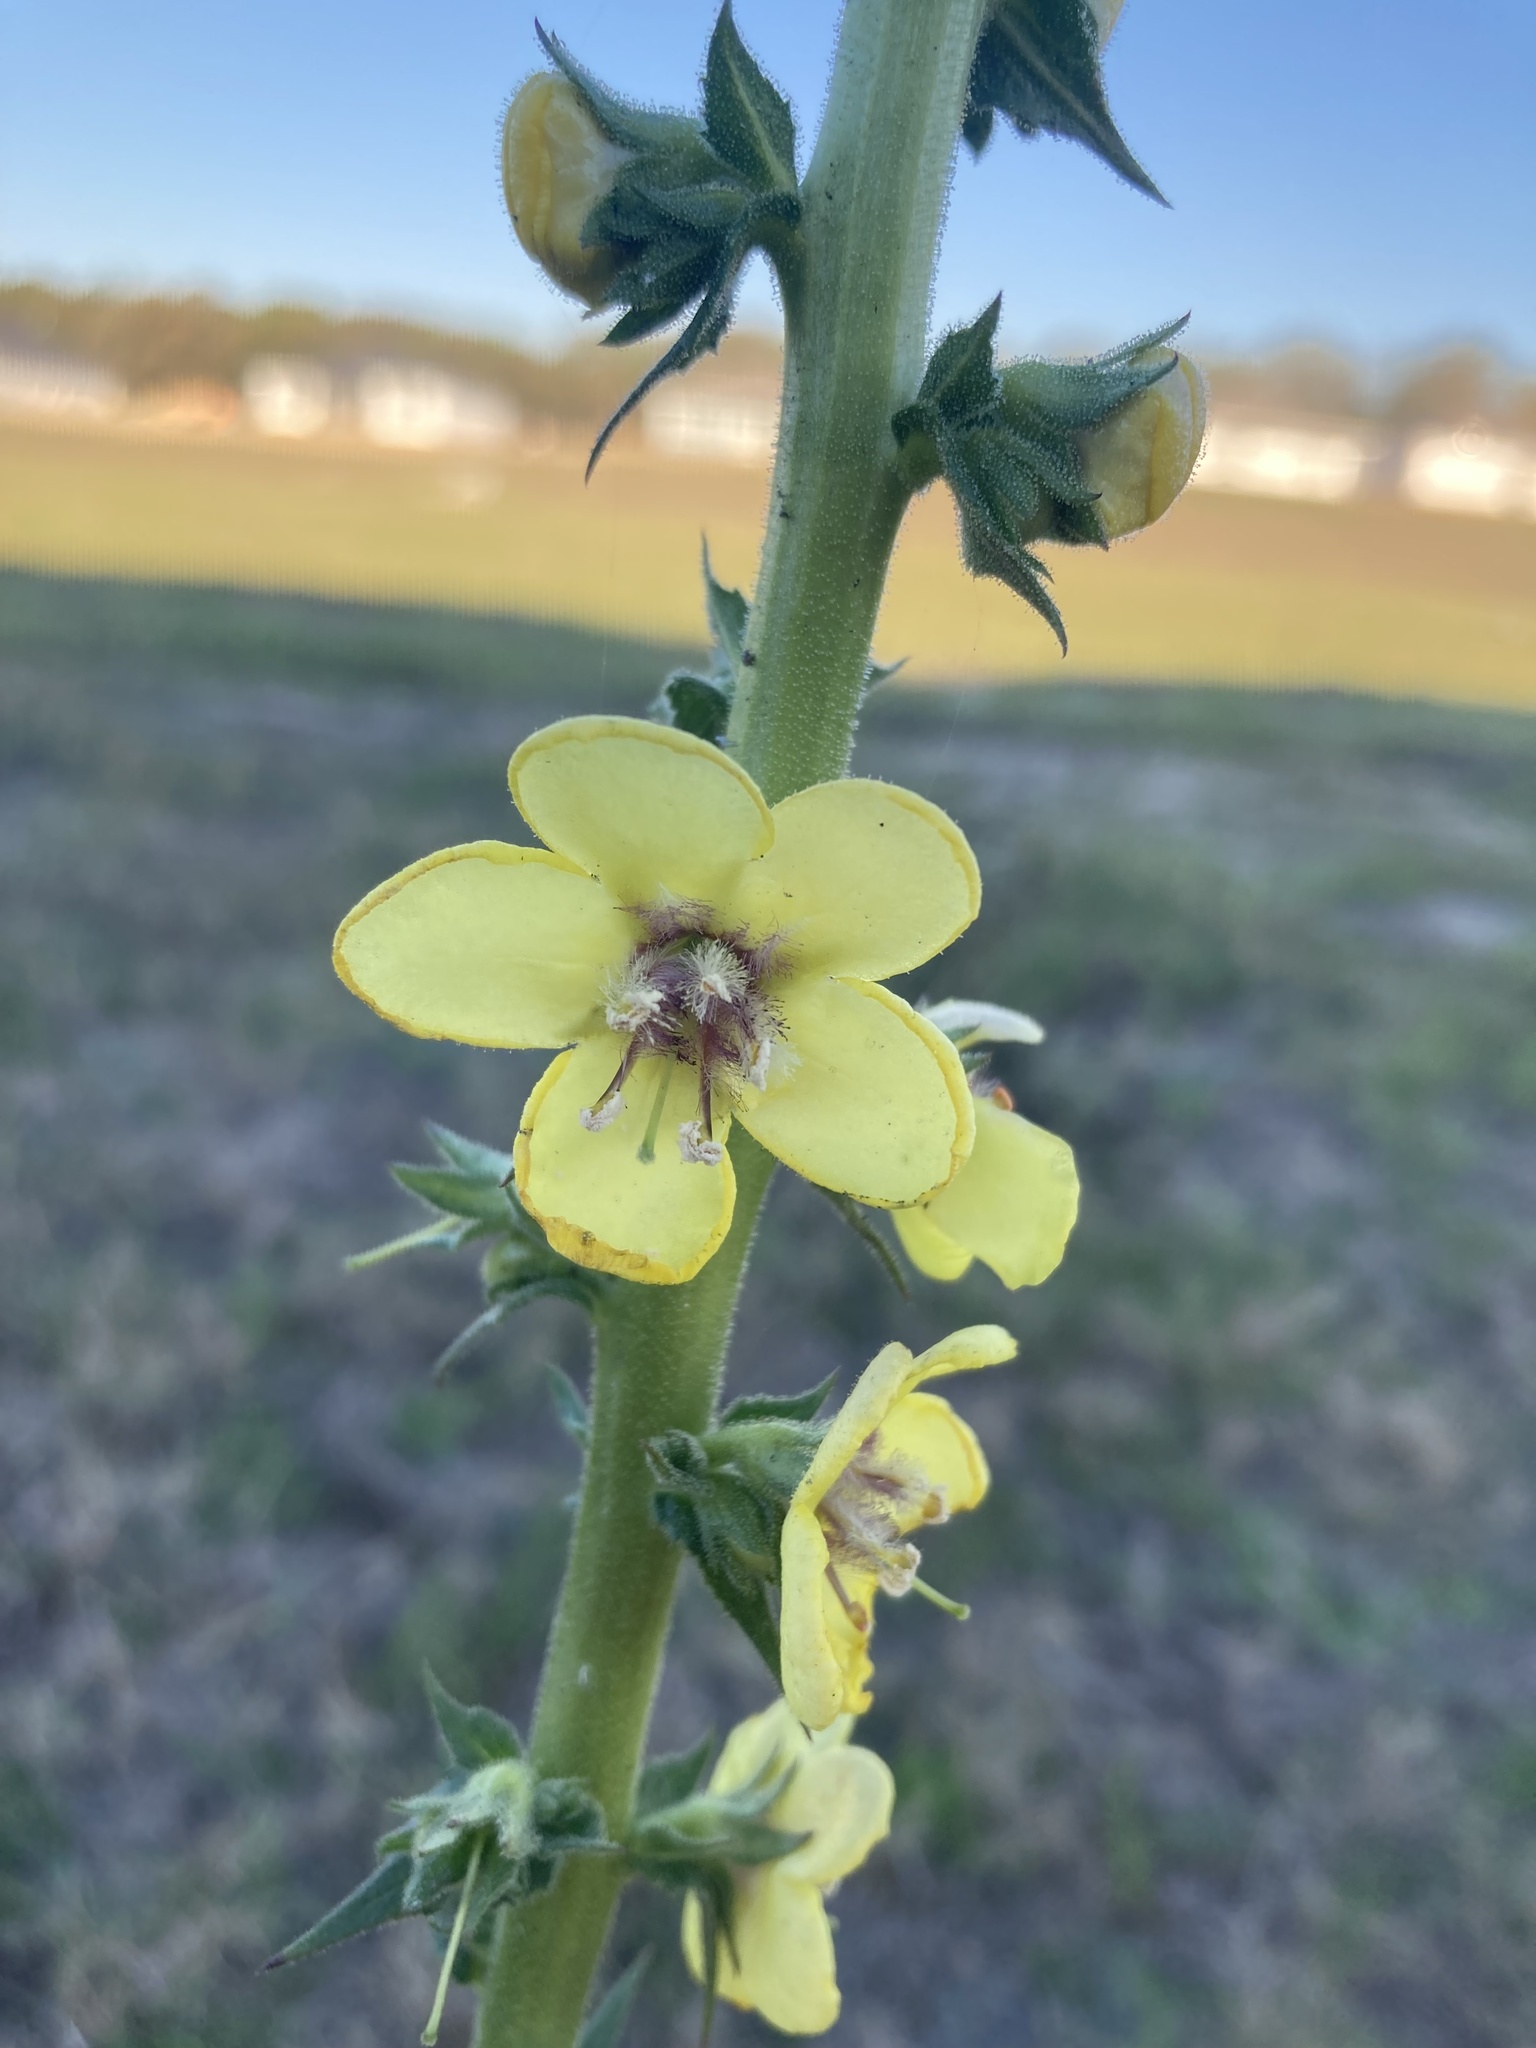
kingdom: Plantae
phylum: Tracheophyta
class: Magnoliopsida
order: Lamiales
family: Scrophulariaceae
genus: Verbascum
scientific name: Verbascum virgatum
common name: Twiggy mullein
